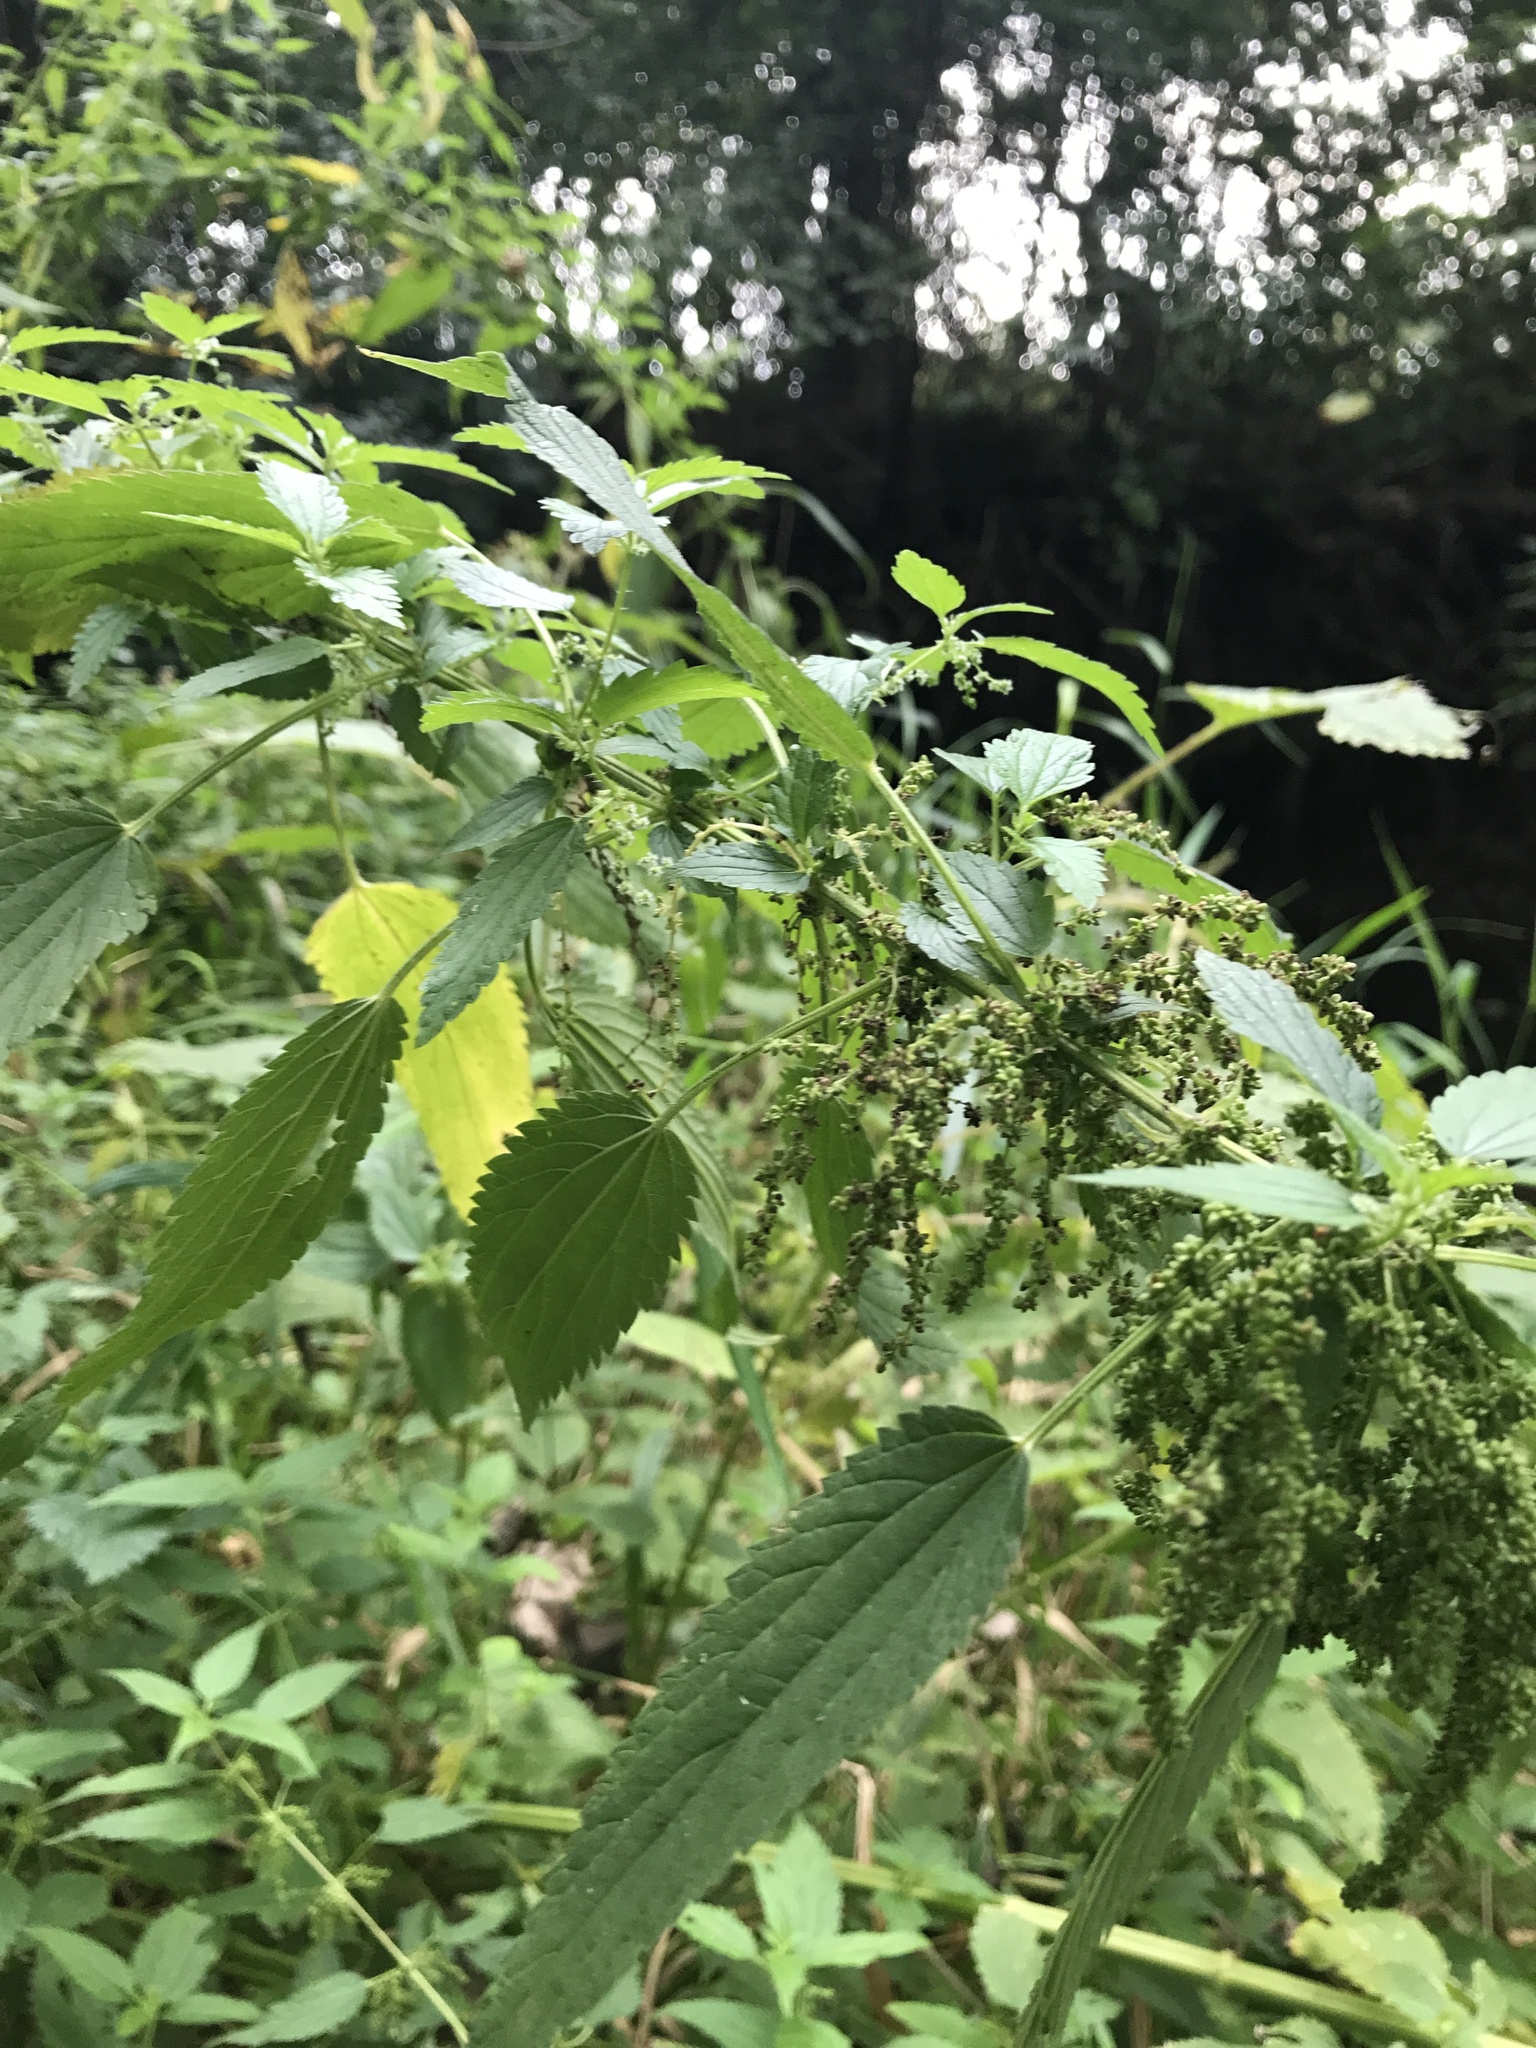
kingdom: Plantae
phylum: Tracheophyta
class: Magnoliopsida
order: Rosales
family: Urticaceae
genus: Urtica
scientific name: Urtica dioica
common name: Common nettle
